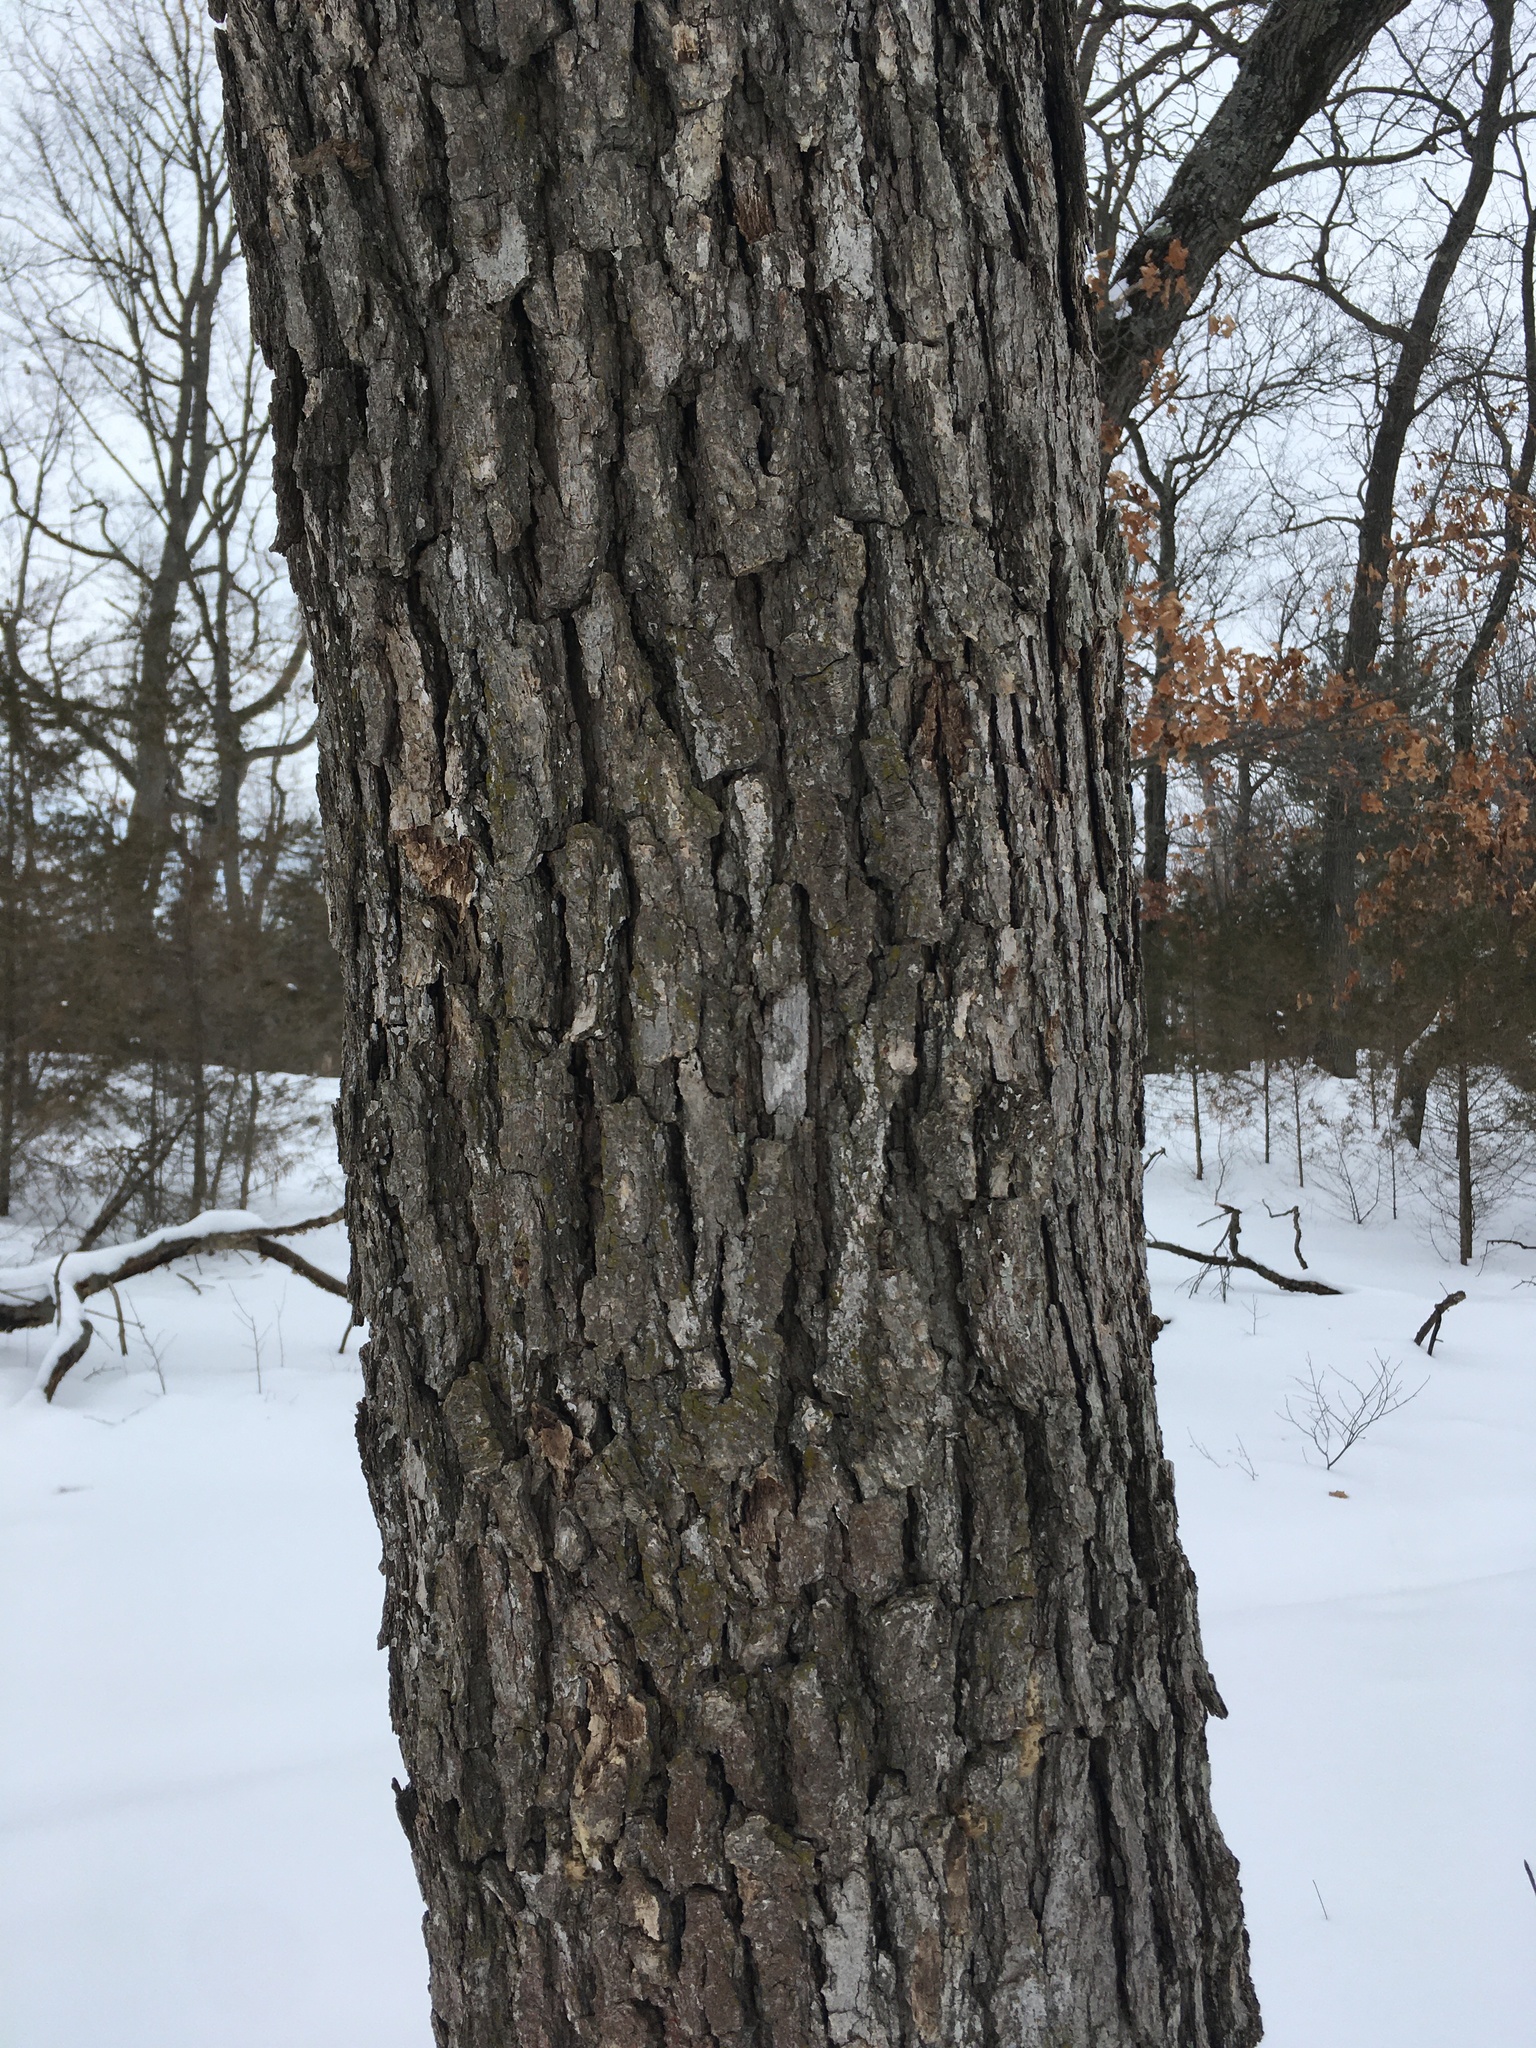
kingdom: Plantae
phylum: Tracheophyta
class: Magnoliopsida
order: Fagales
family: Fagaceae
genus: Quercus
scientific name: Quercus alba
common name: White oak
